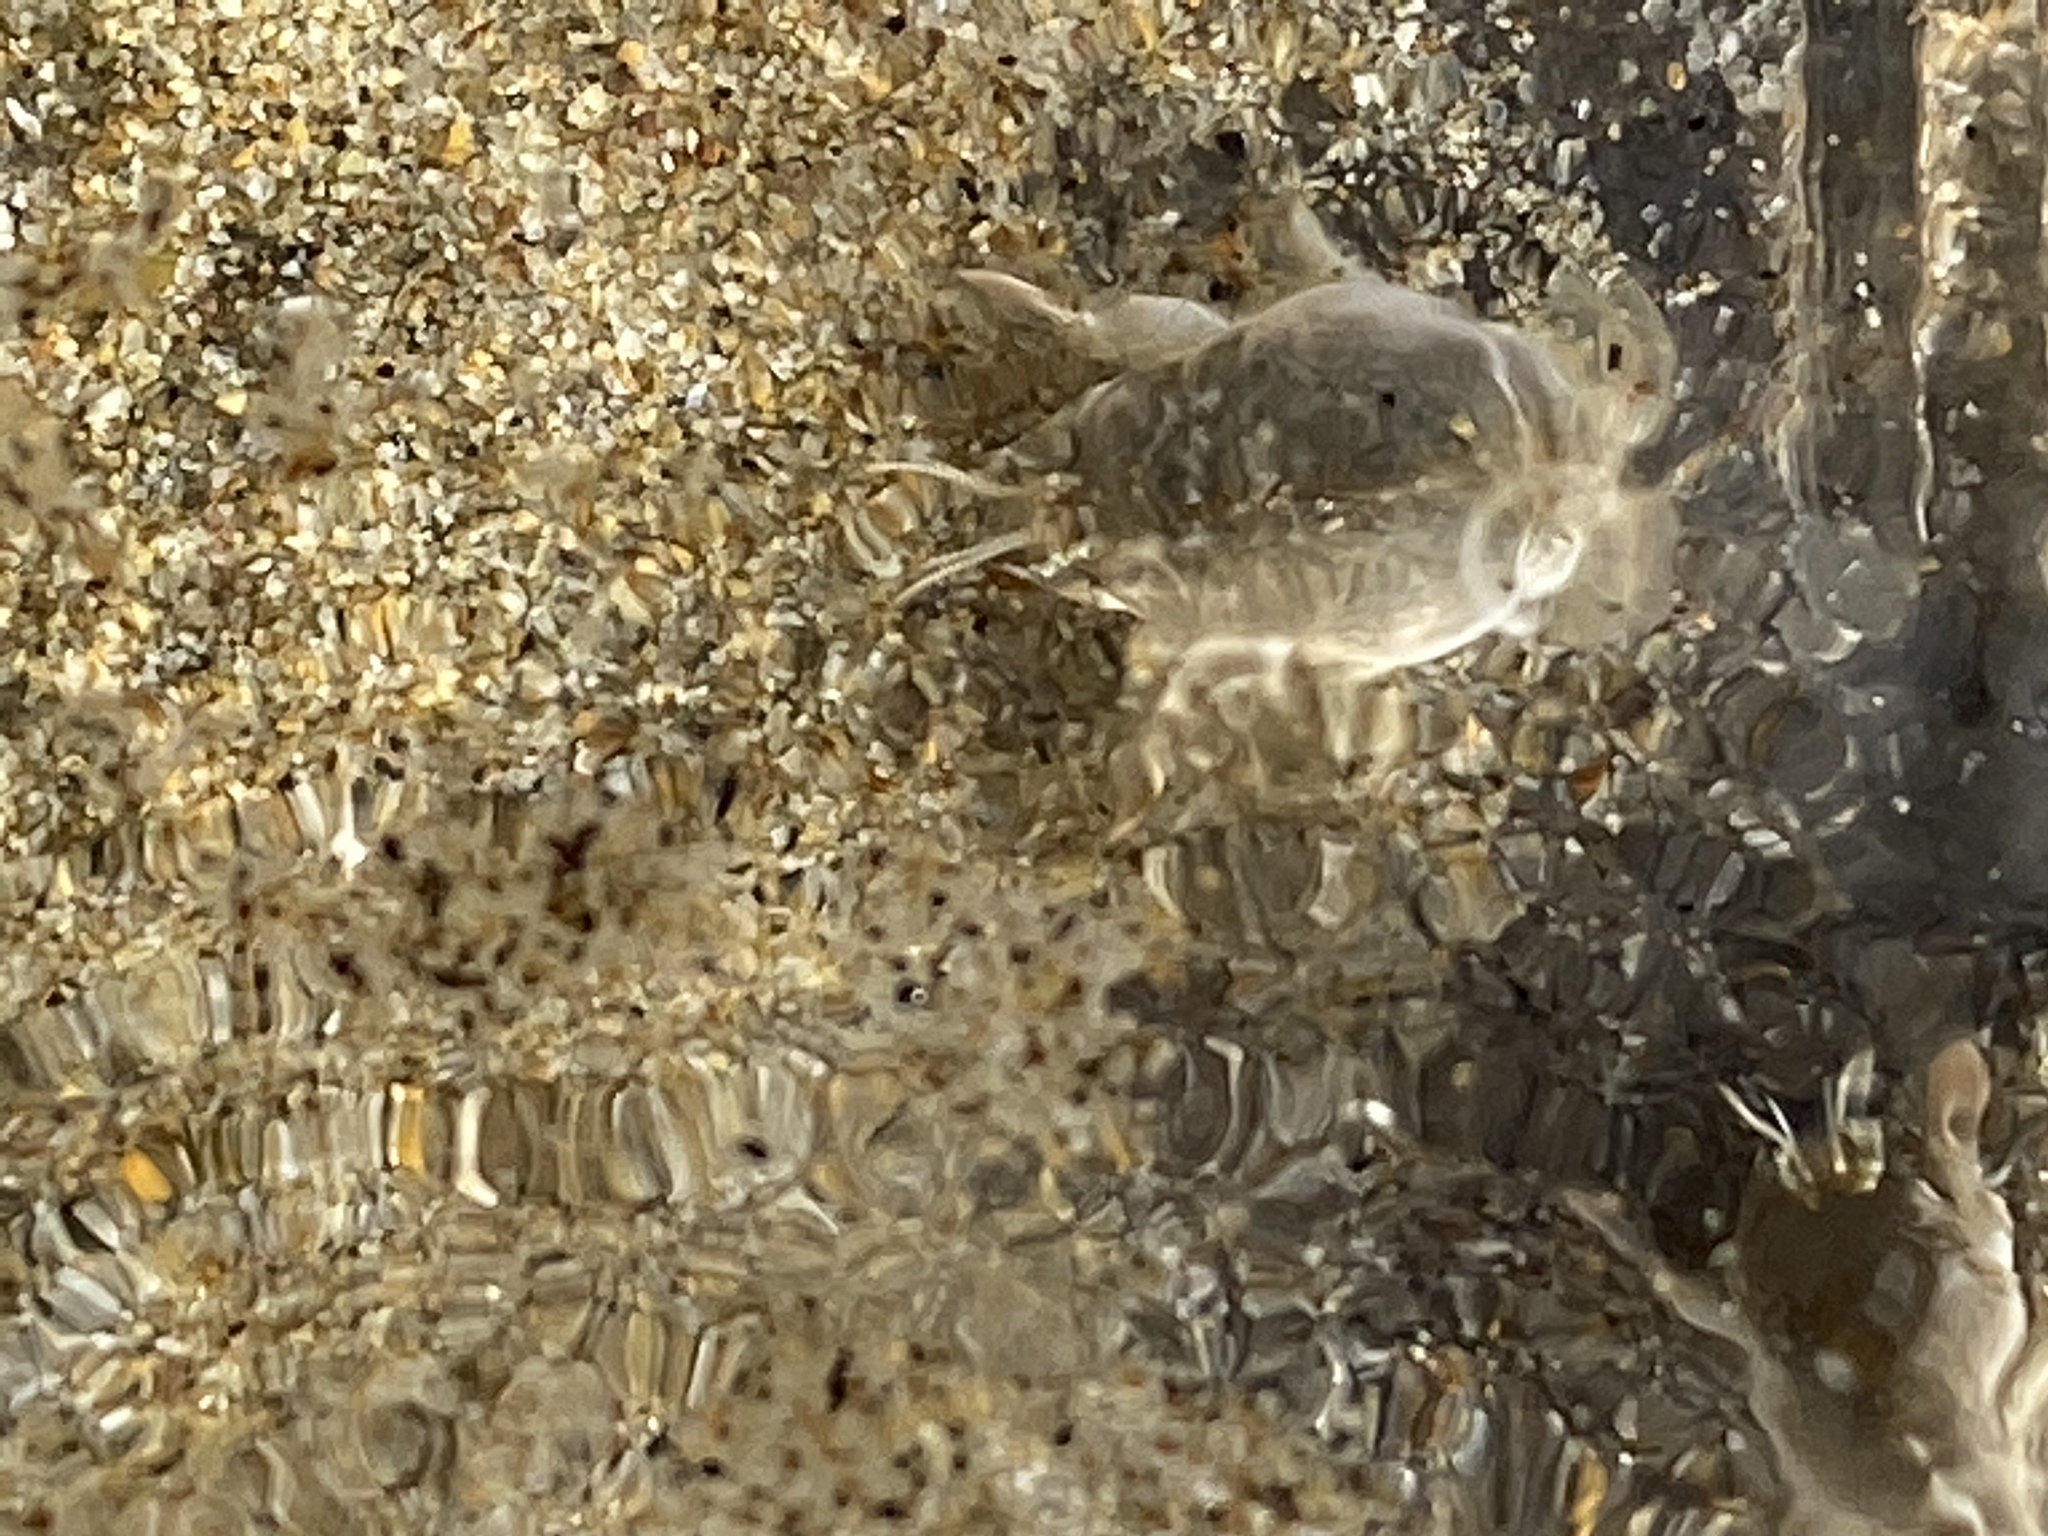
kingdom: Animalia
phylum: Arthropoda
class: Malacostraca
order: Decapoda
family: Hippidae
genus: Emerita
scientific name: Emerita analoga
